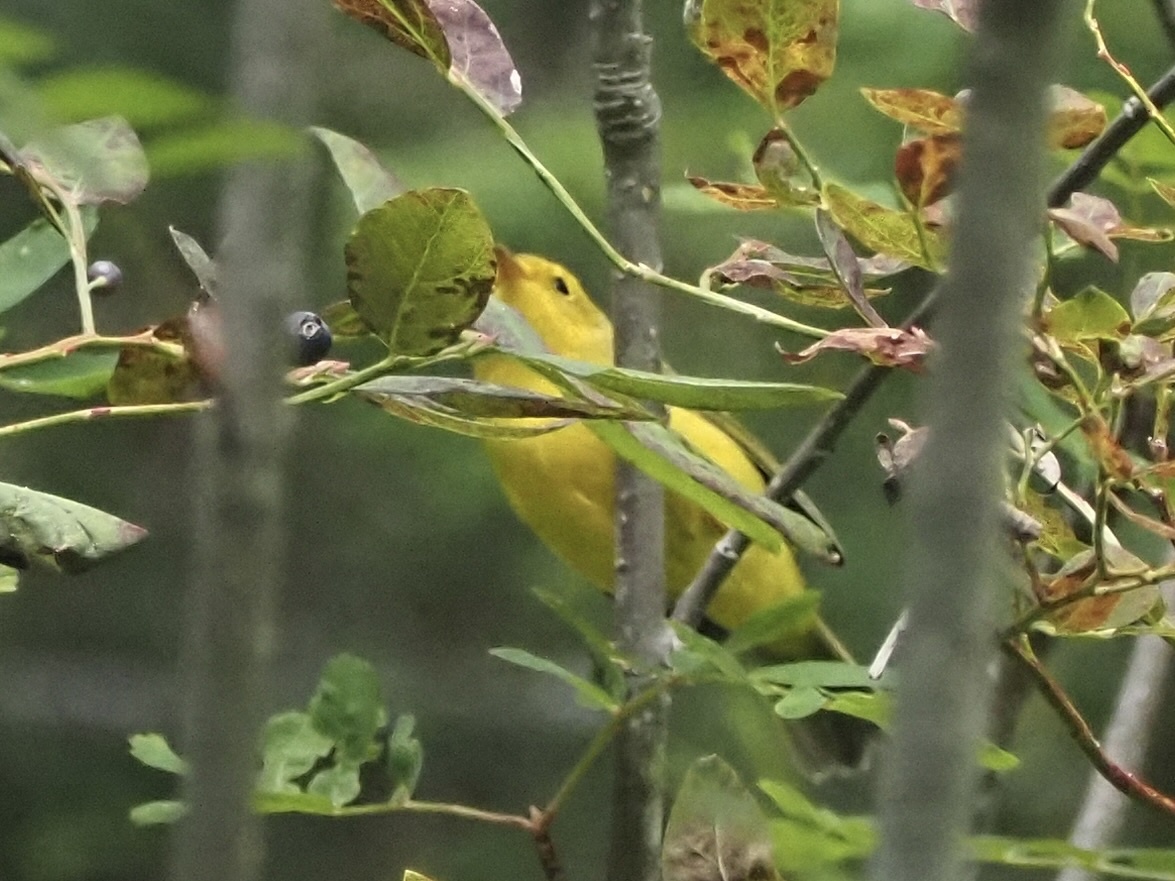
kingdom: Animalia
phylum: Chordata
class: Aves
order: Passeriformes
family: Parulidae
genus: Cardellina
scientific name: Cardellina pusilla
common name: Wilson's warbler
